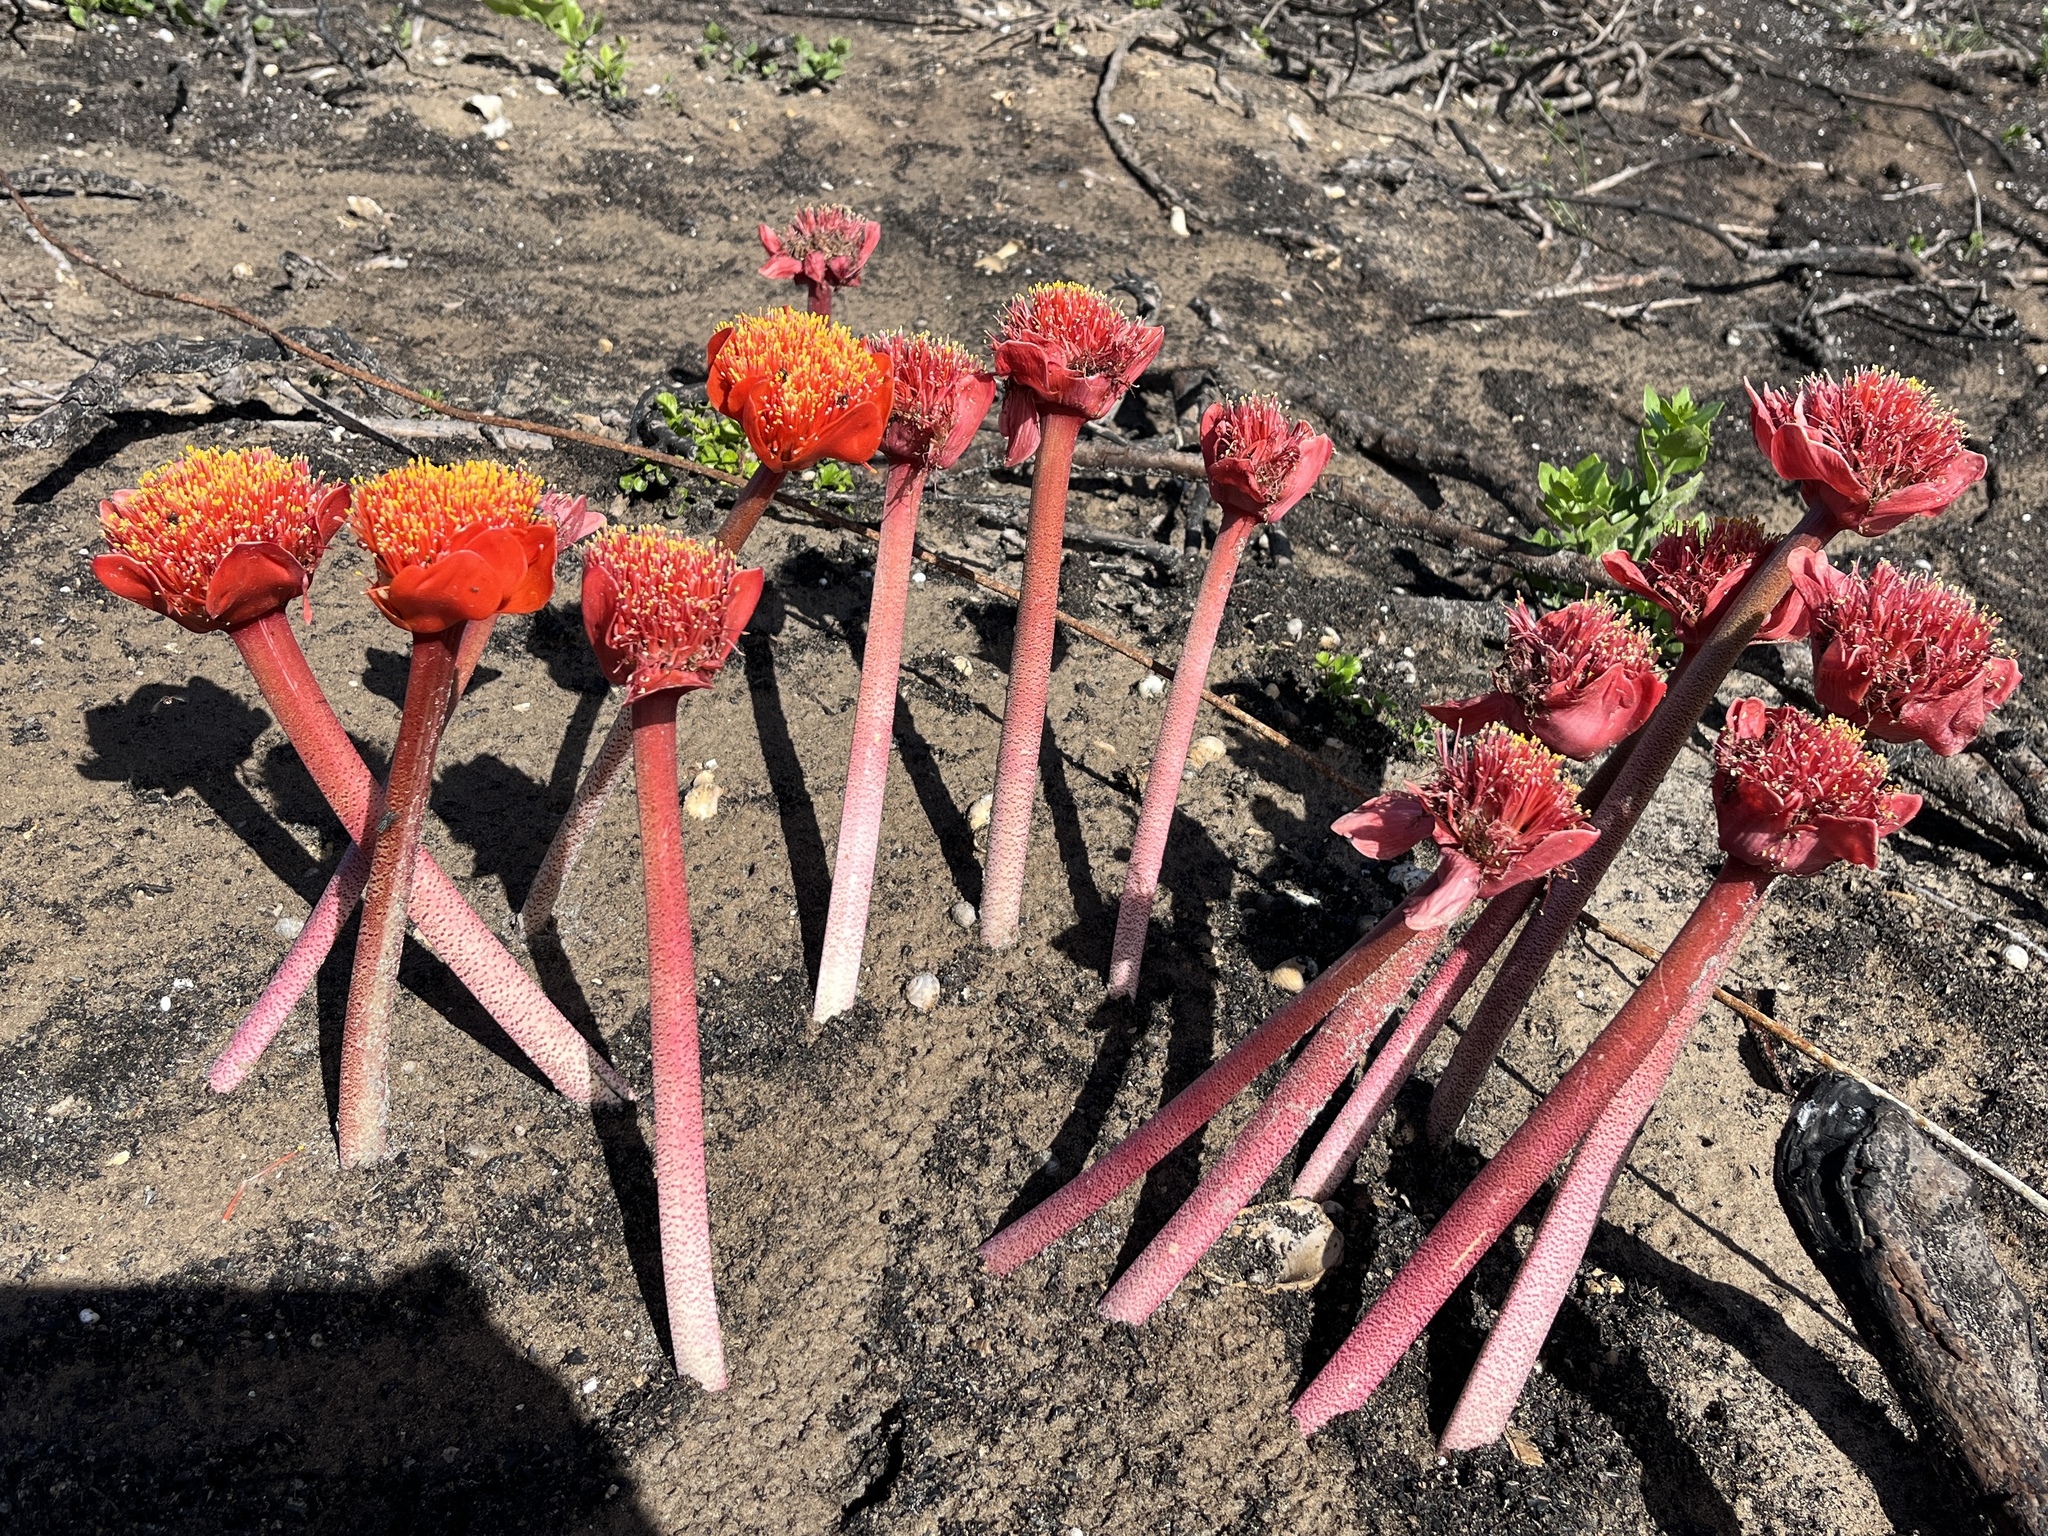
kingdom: Plantae
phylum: Tracheophyta
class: Liliopsida
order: Asparagales
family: Amaryllidaceae
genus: Haemanthus
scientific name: Haemanthus coccineus
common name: Cape-tulip
